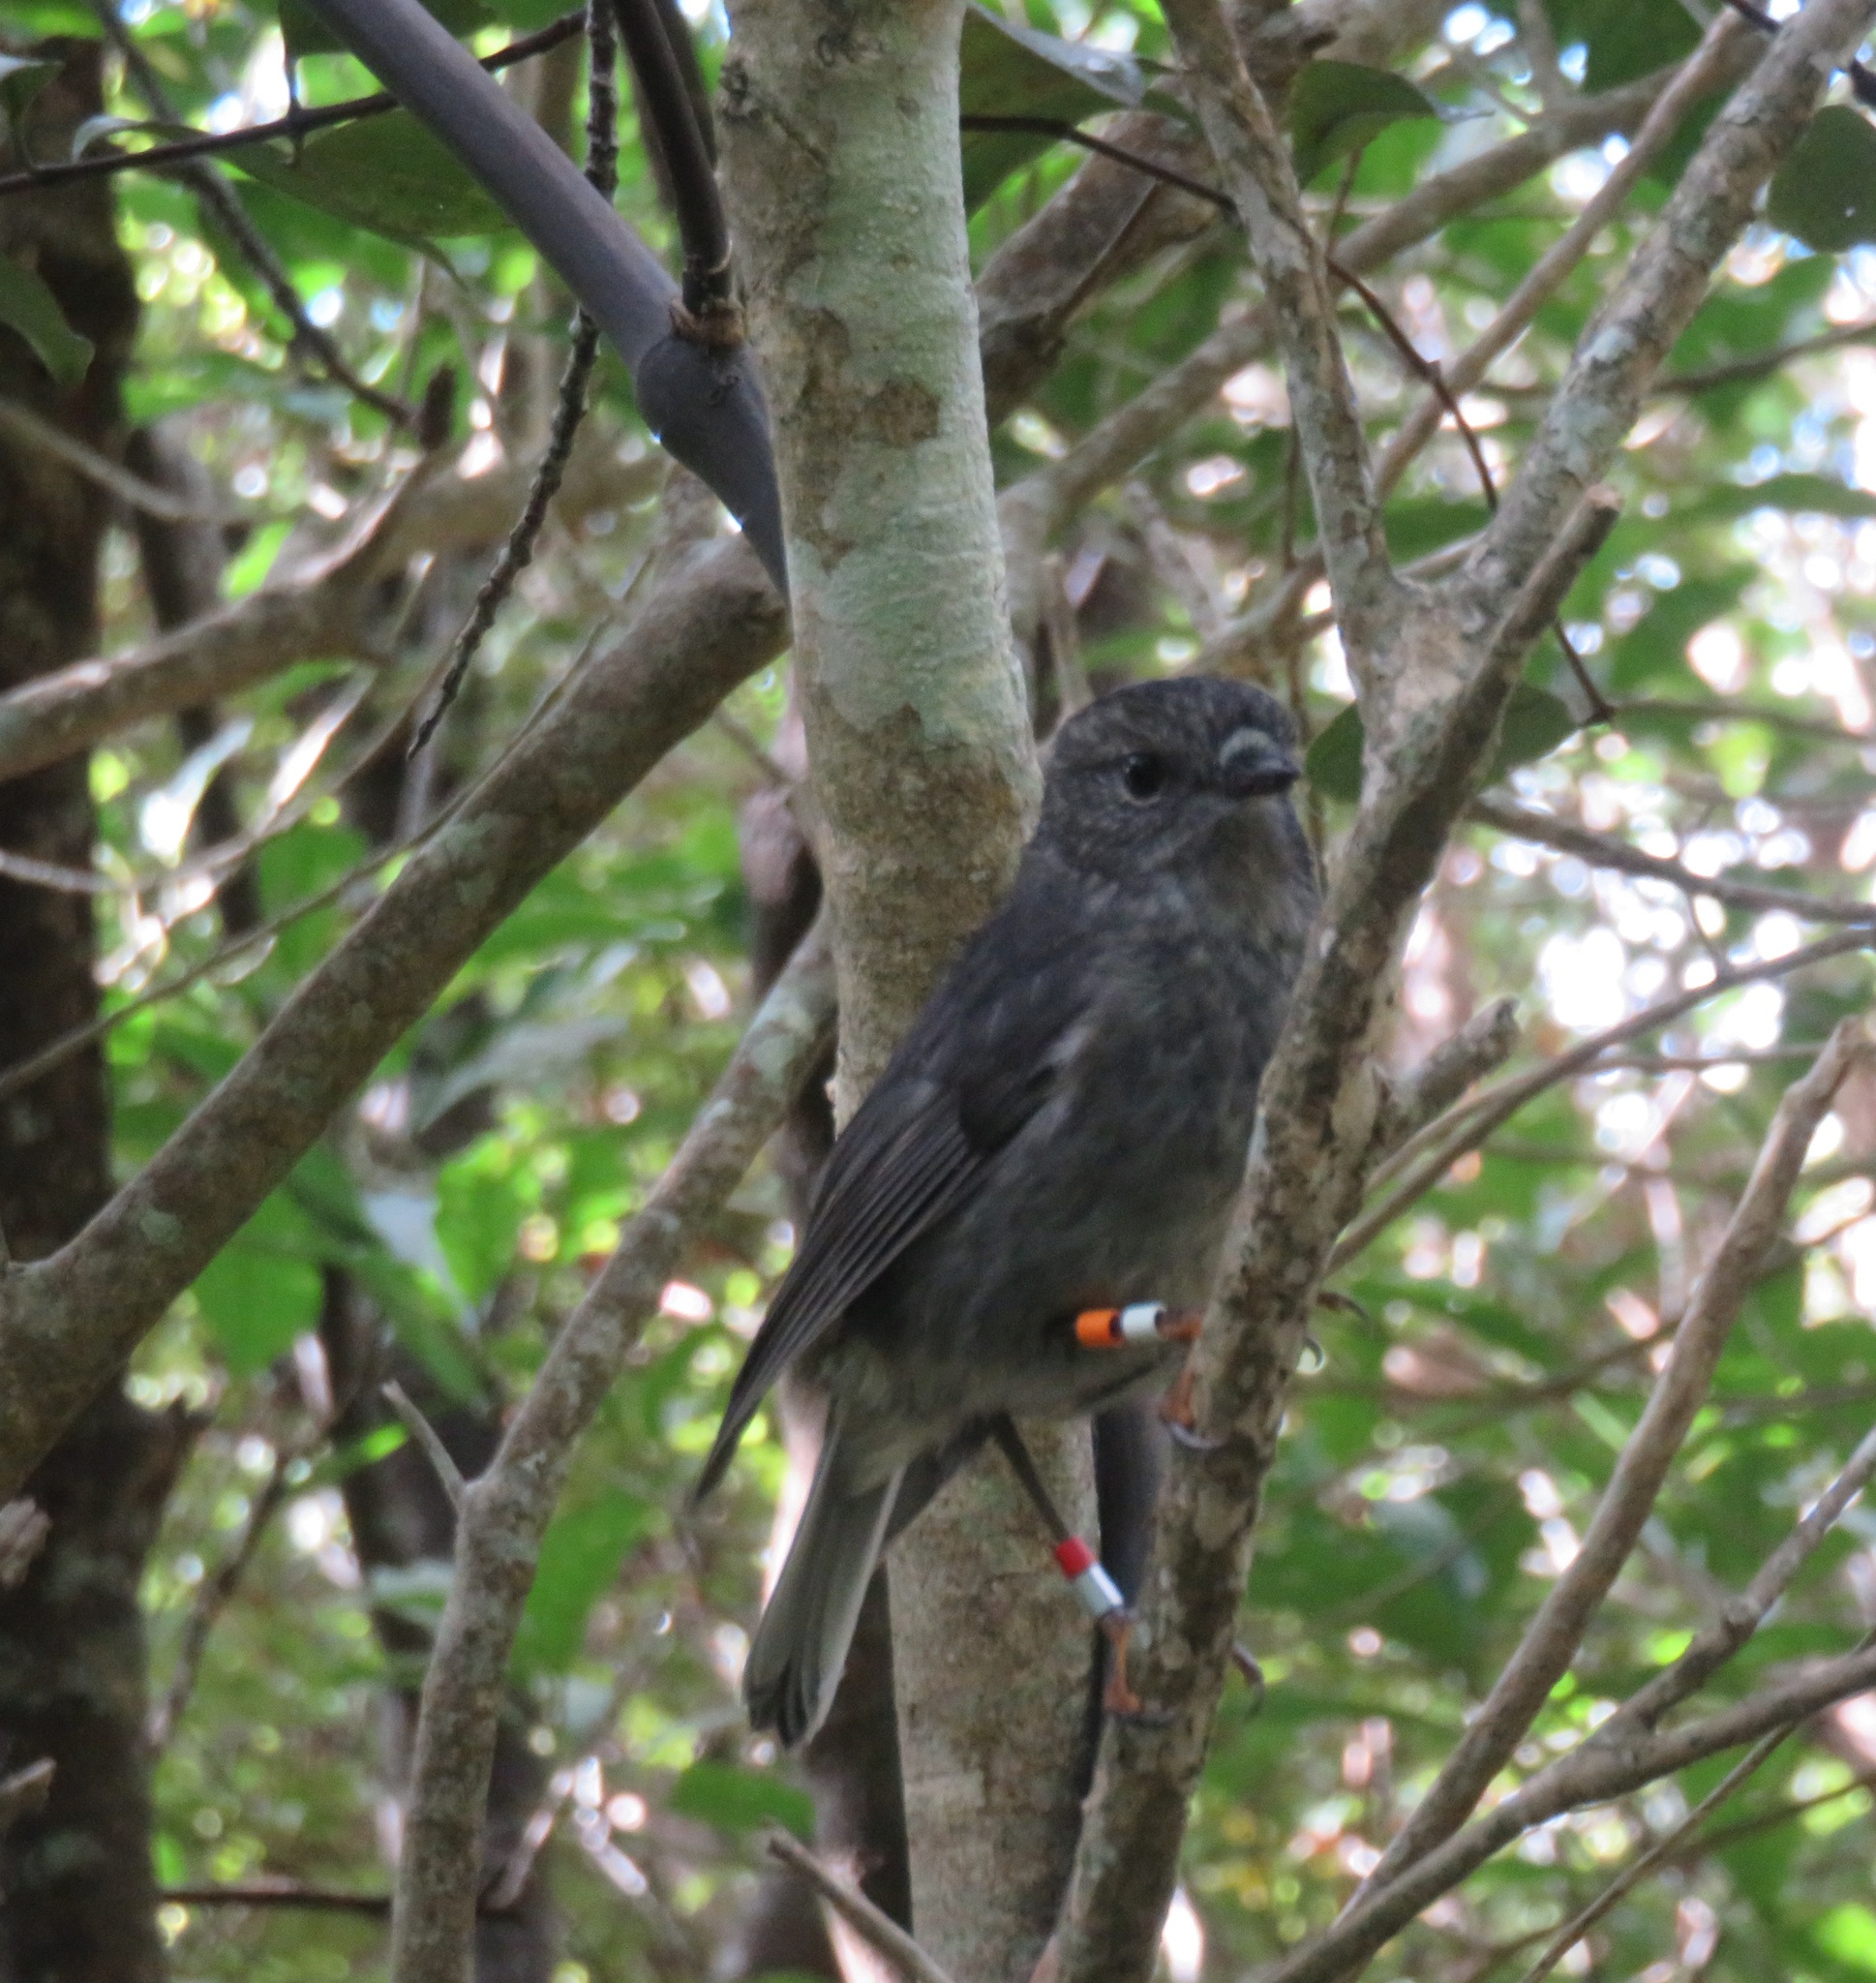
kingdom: Animalia
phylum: Chordata
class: Aves
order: Passeriformes
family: Petroicidae
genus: Petroica
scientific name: Petroica australis
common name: New zealand robin
